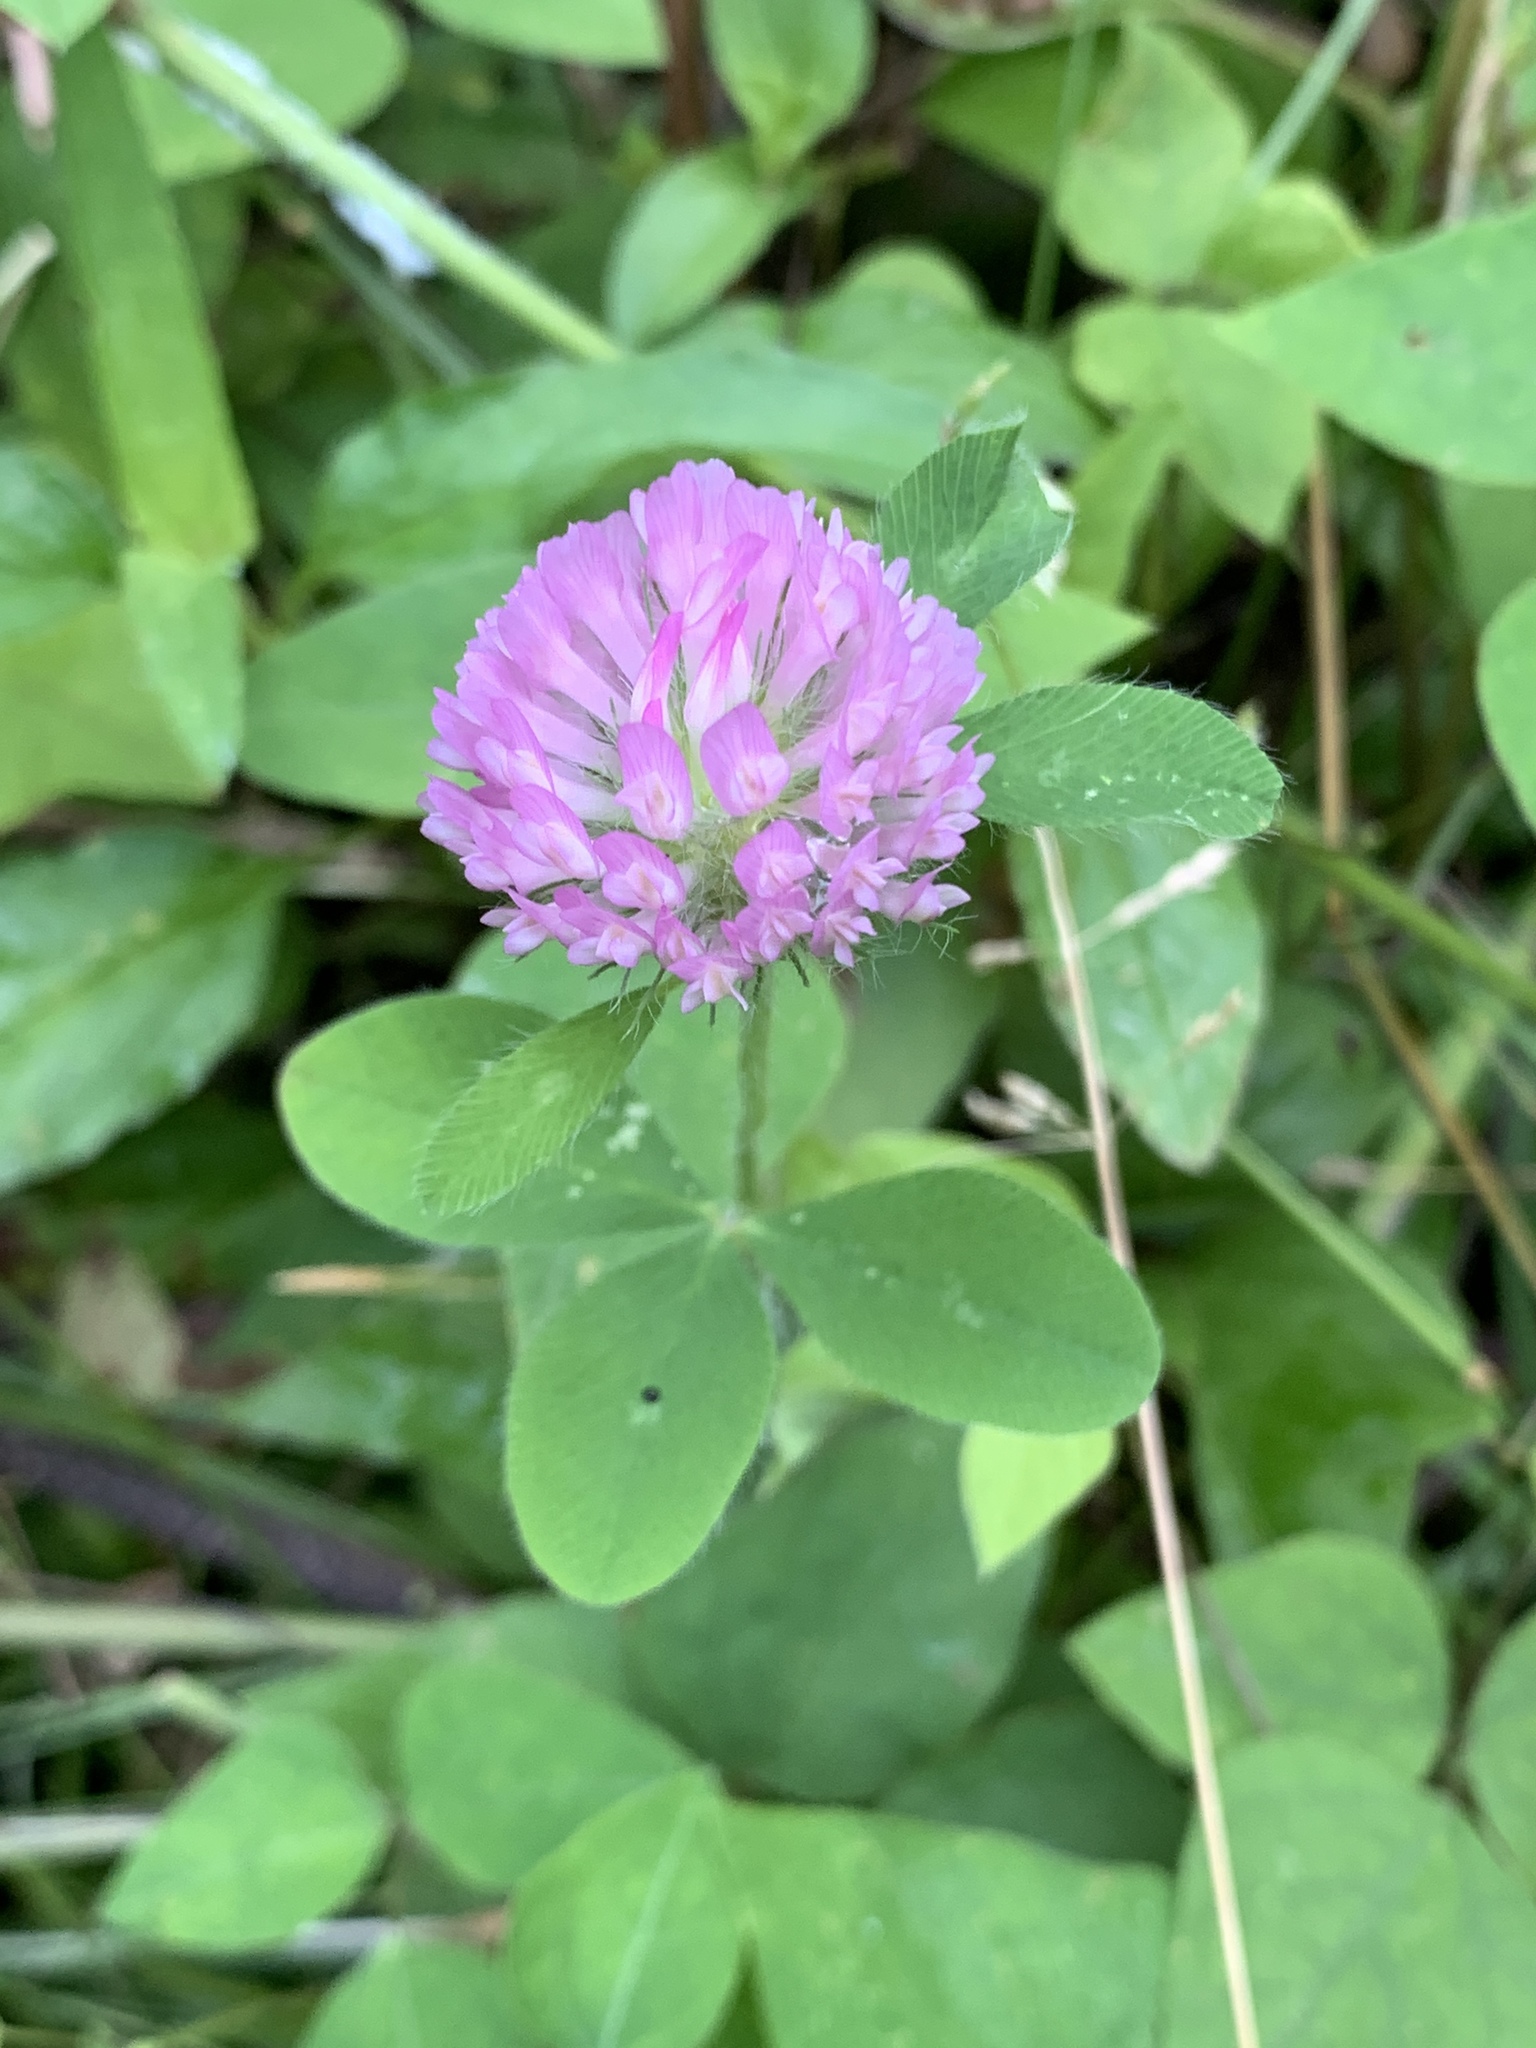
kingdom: Plantae
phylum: Tracheophyta
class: Magnoliopsida
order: Fabales
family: Fabaceae
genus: Trifolium
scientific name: Trifolium pratense
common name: Red clover
